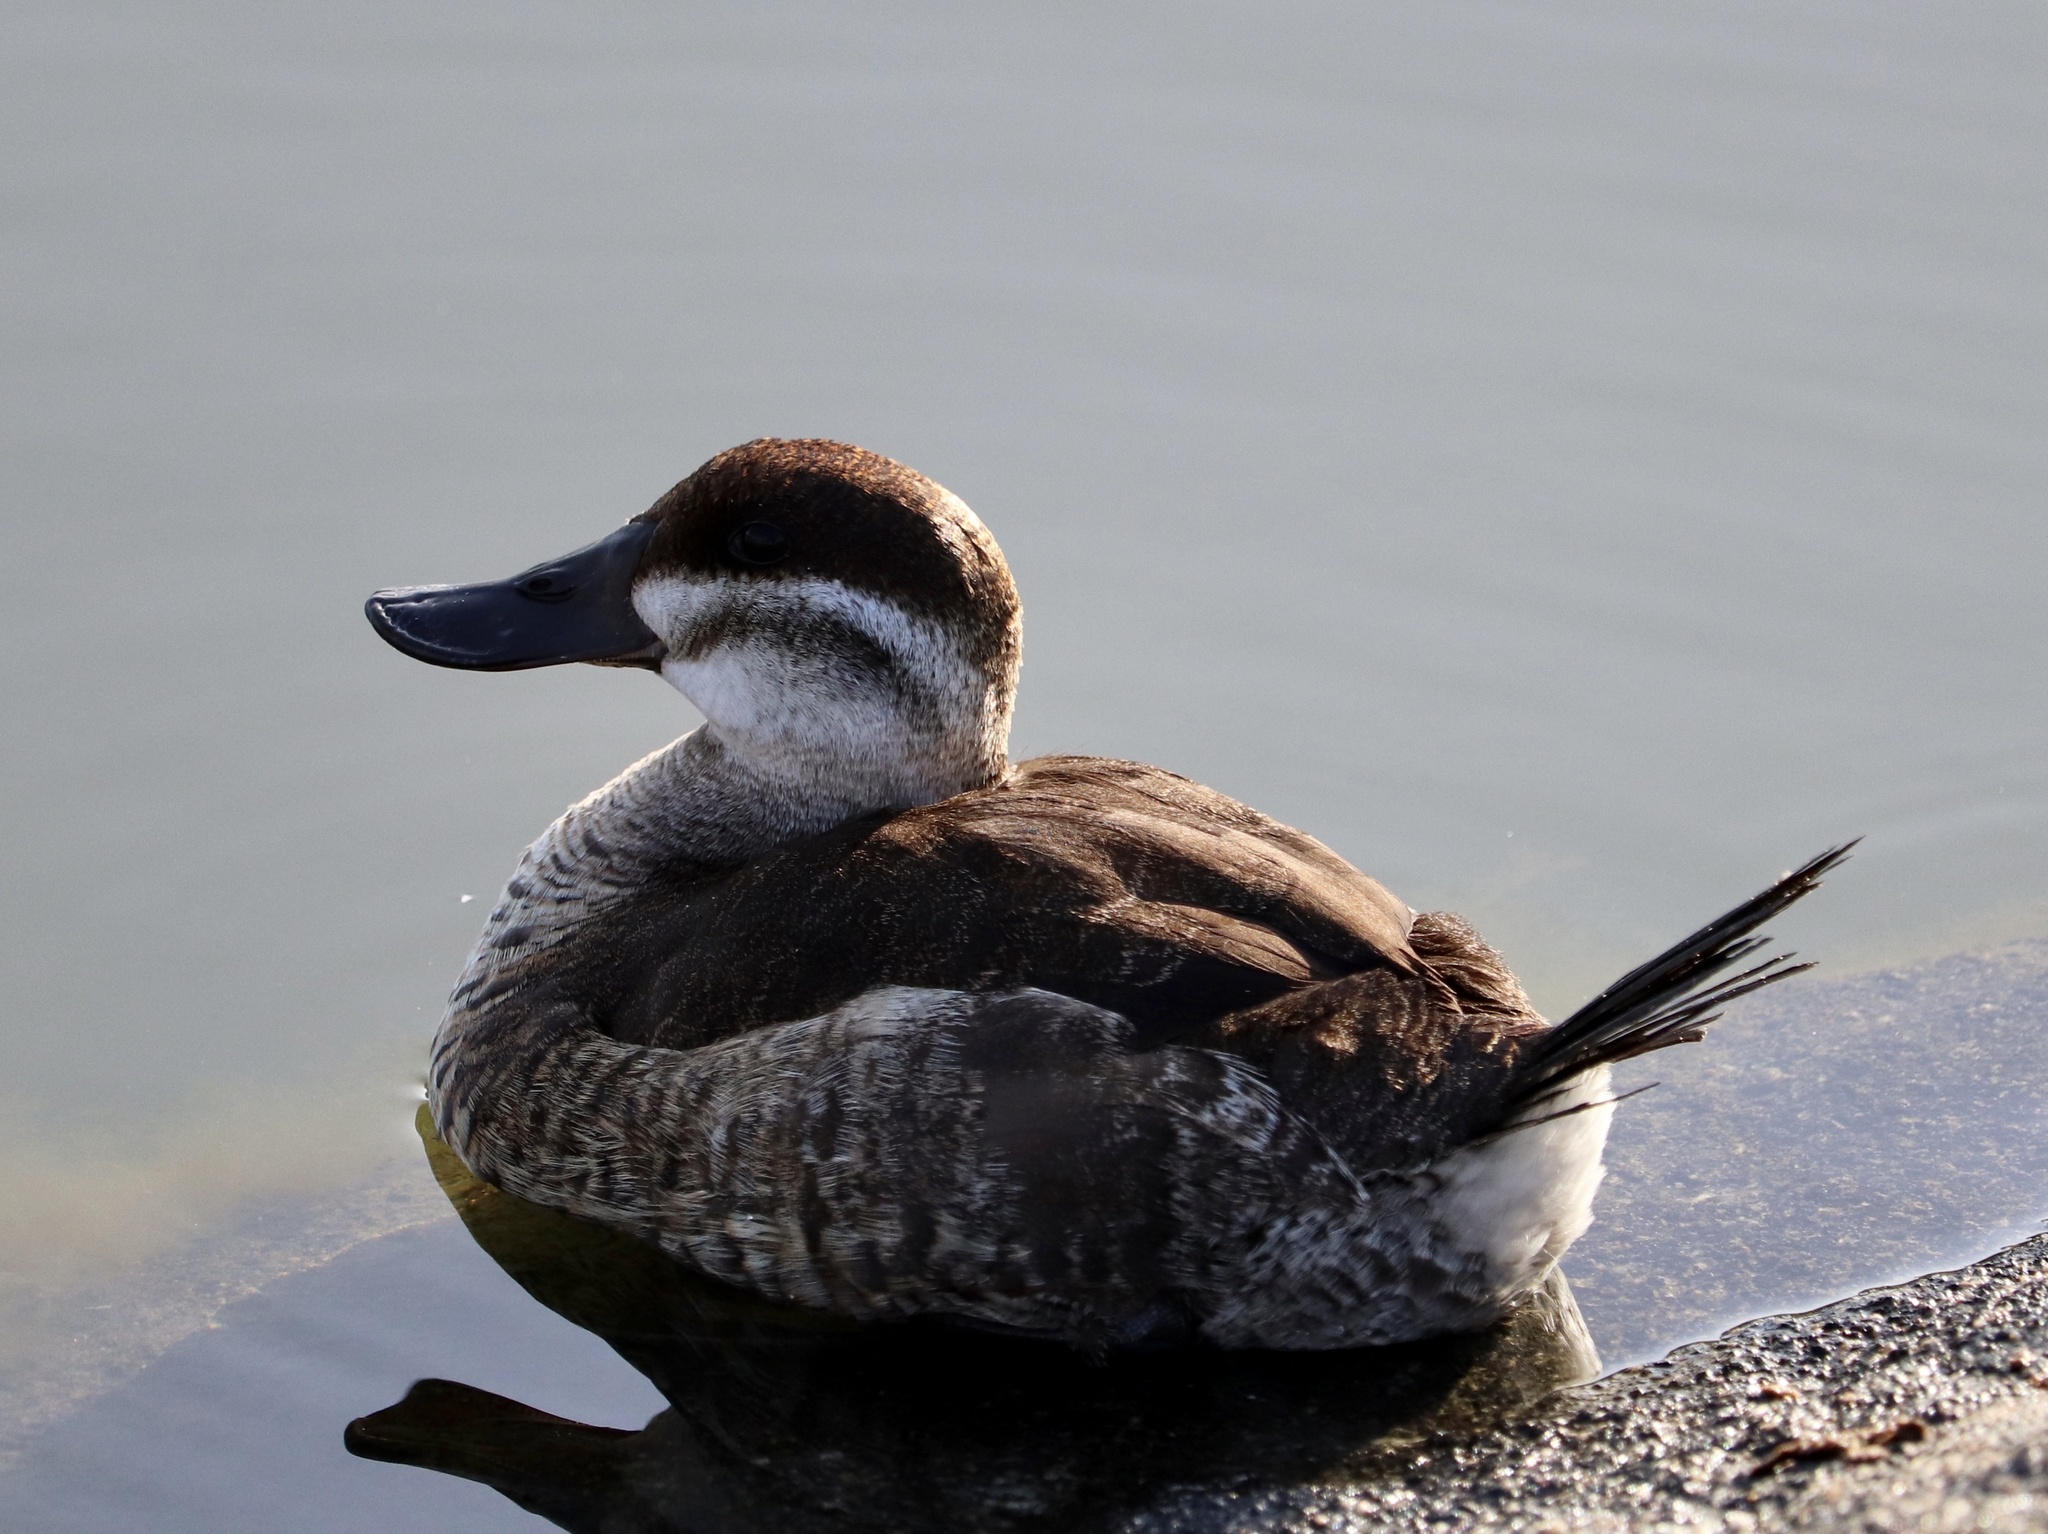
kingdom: Animalia
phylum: Chordata
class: Aves
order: Anseriformes
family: Anatidae
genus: Oxyura
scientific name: Oxyura jamaicensis
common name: Ruddy duck
